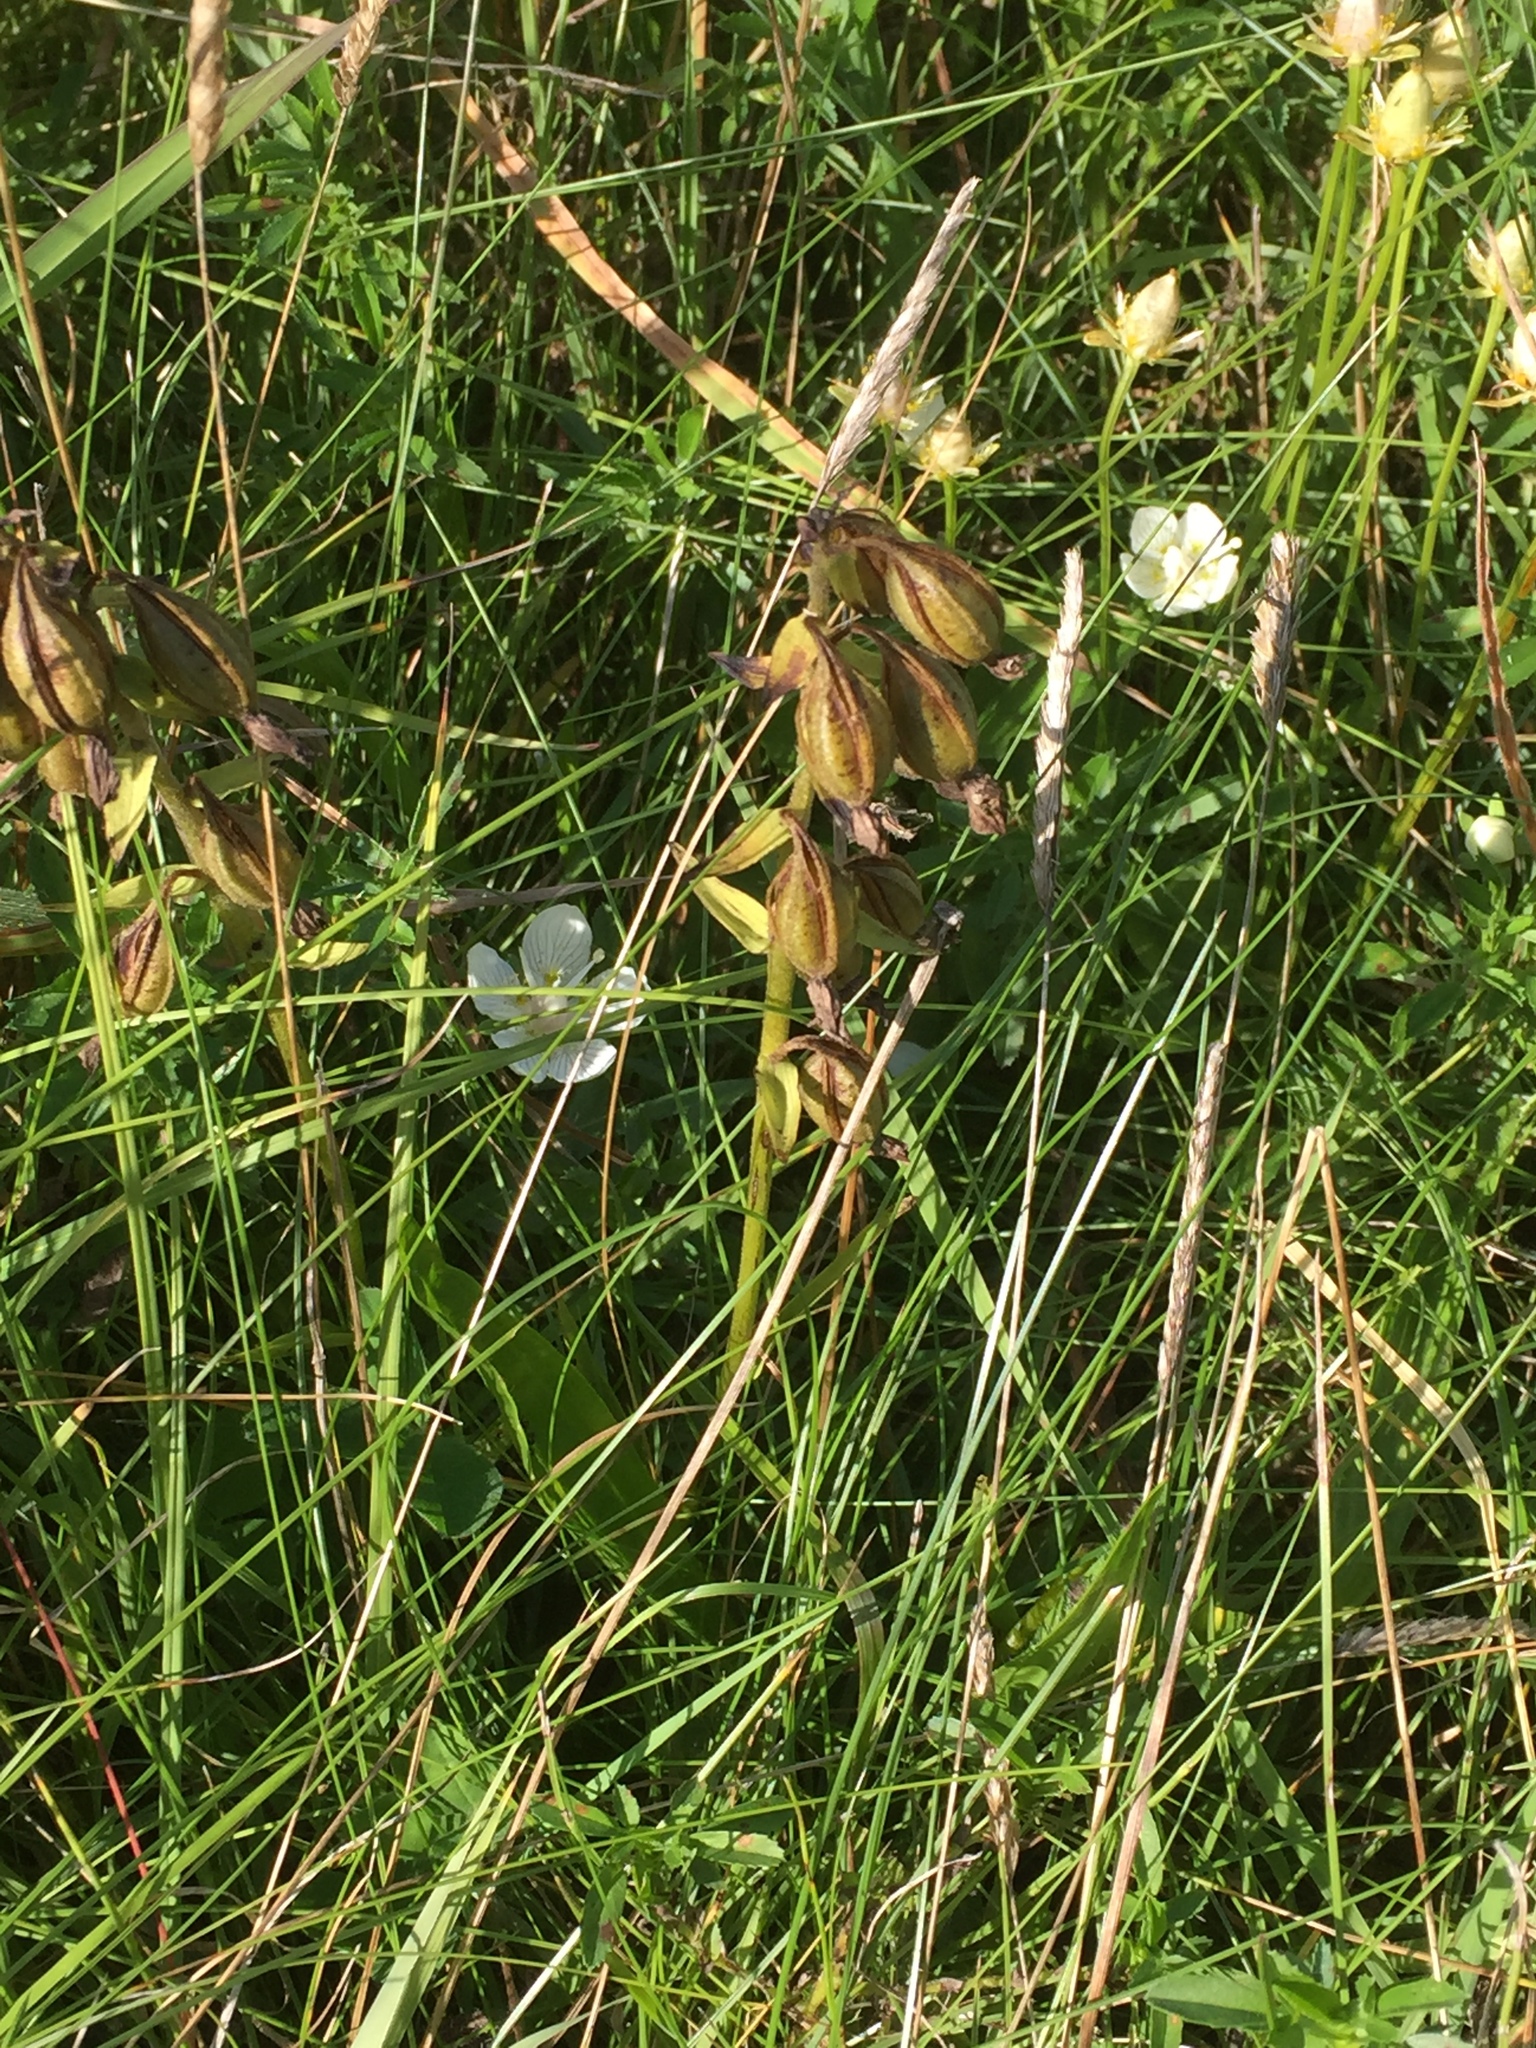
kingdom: Plantae
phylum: Tracheophyta
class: Liliopsida
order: Asparagales
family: Orchidaceae
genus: Epipactis
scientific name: Epipactis palustris
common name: Marsh helleborine
